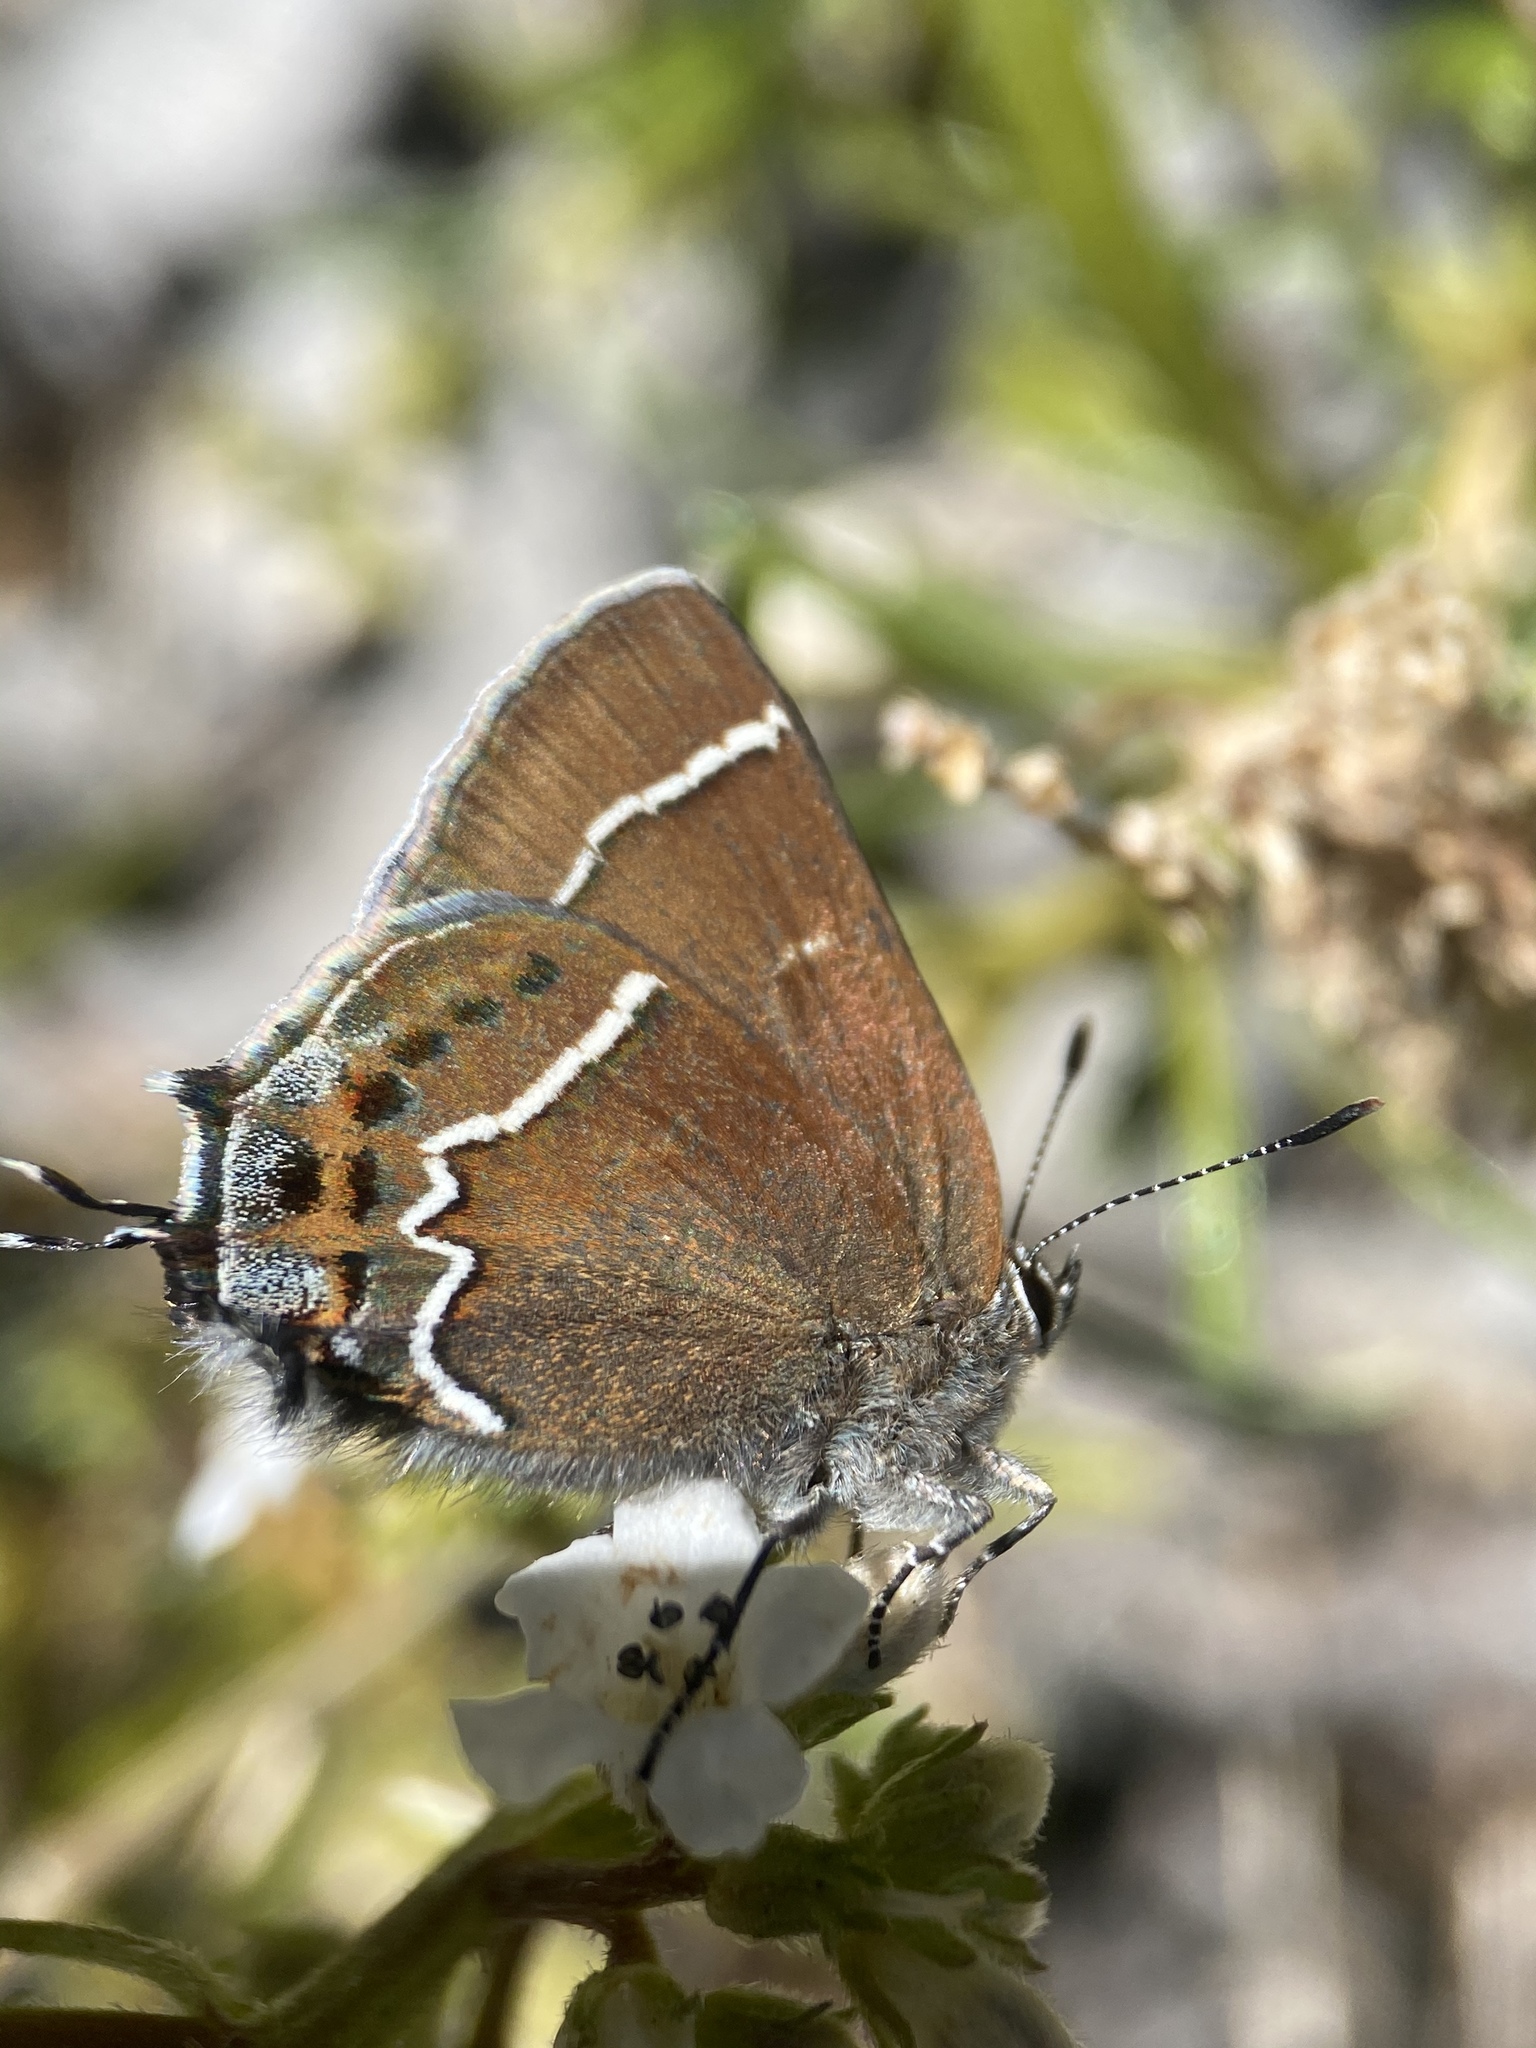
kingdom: Animalia
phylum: Arthropoda
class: Insecta
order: Lepidoptera
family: Lycaenidae
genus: Mitoura
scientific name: Mitoura spinetorum
